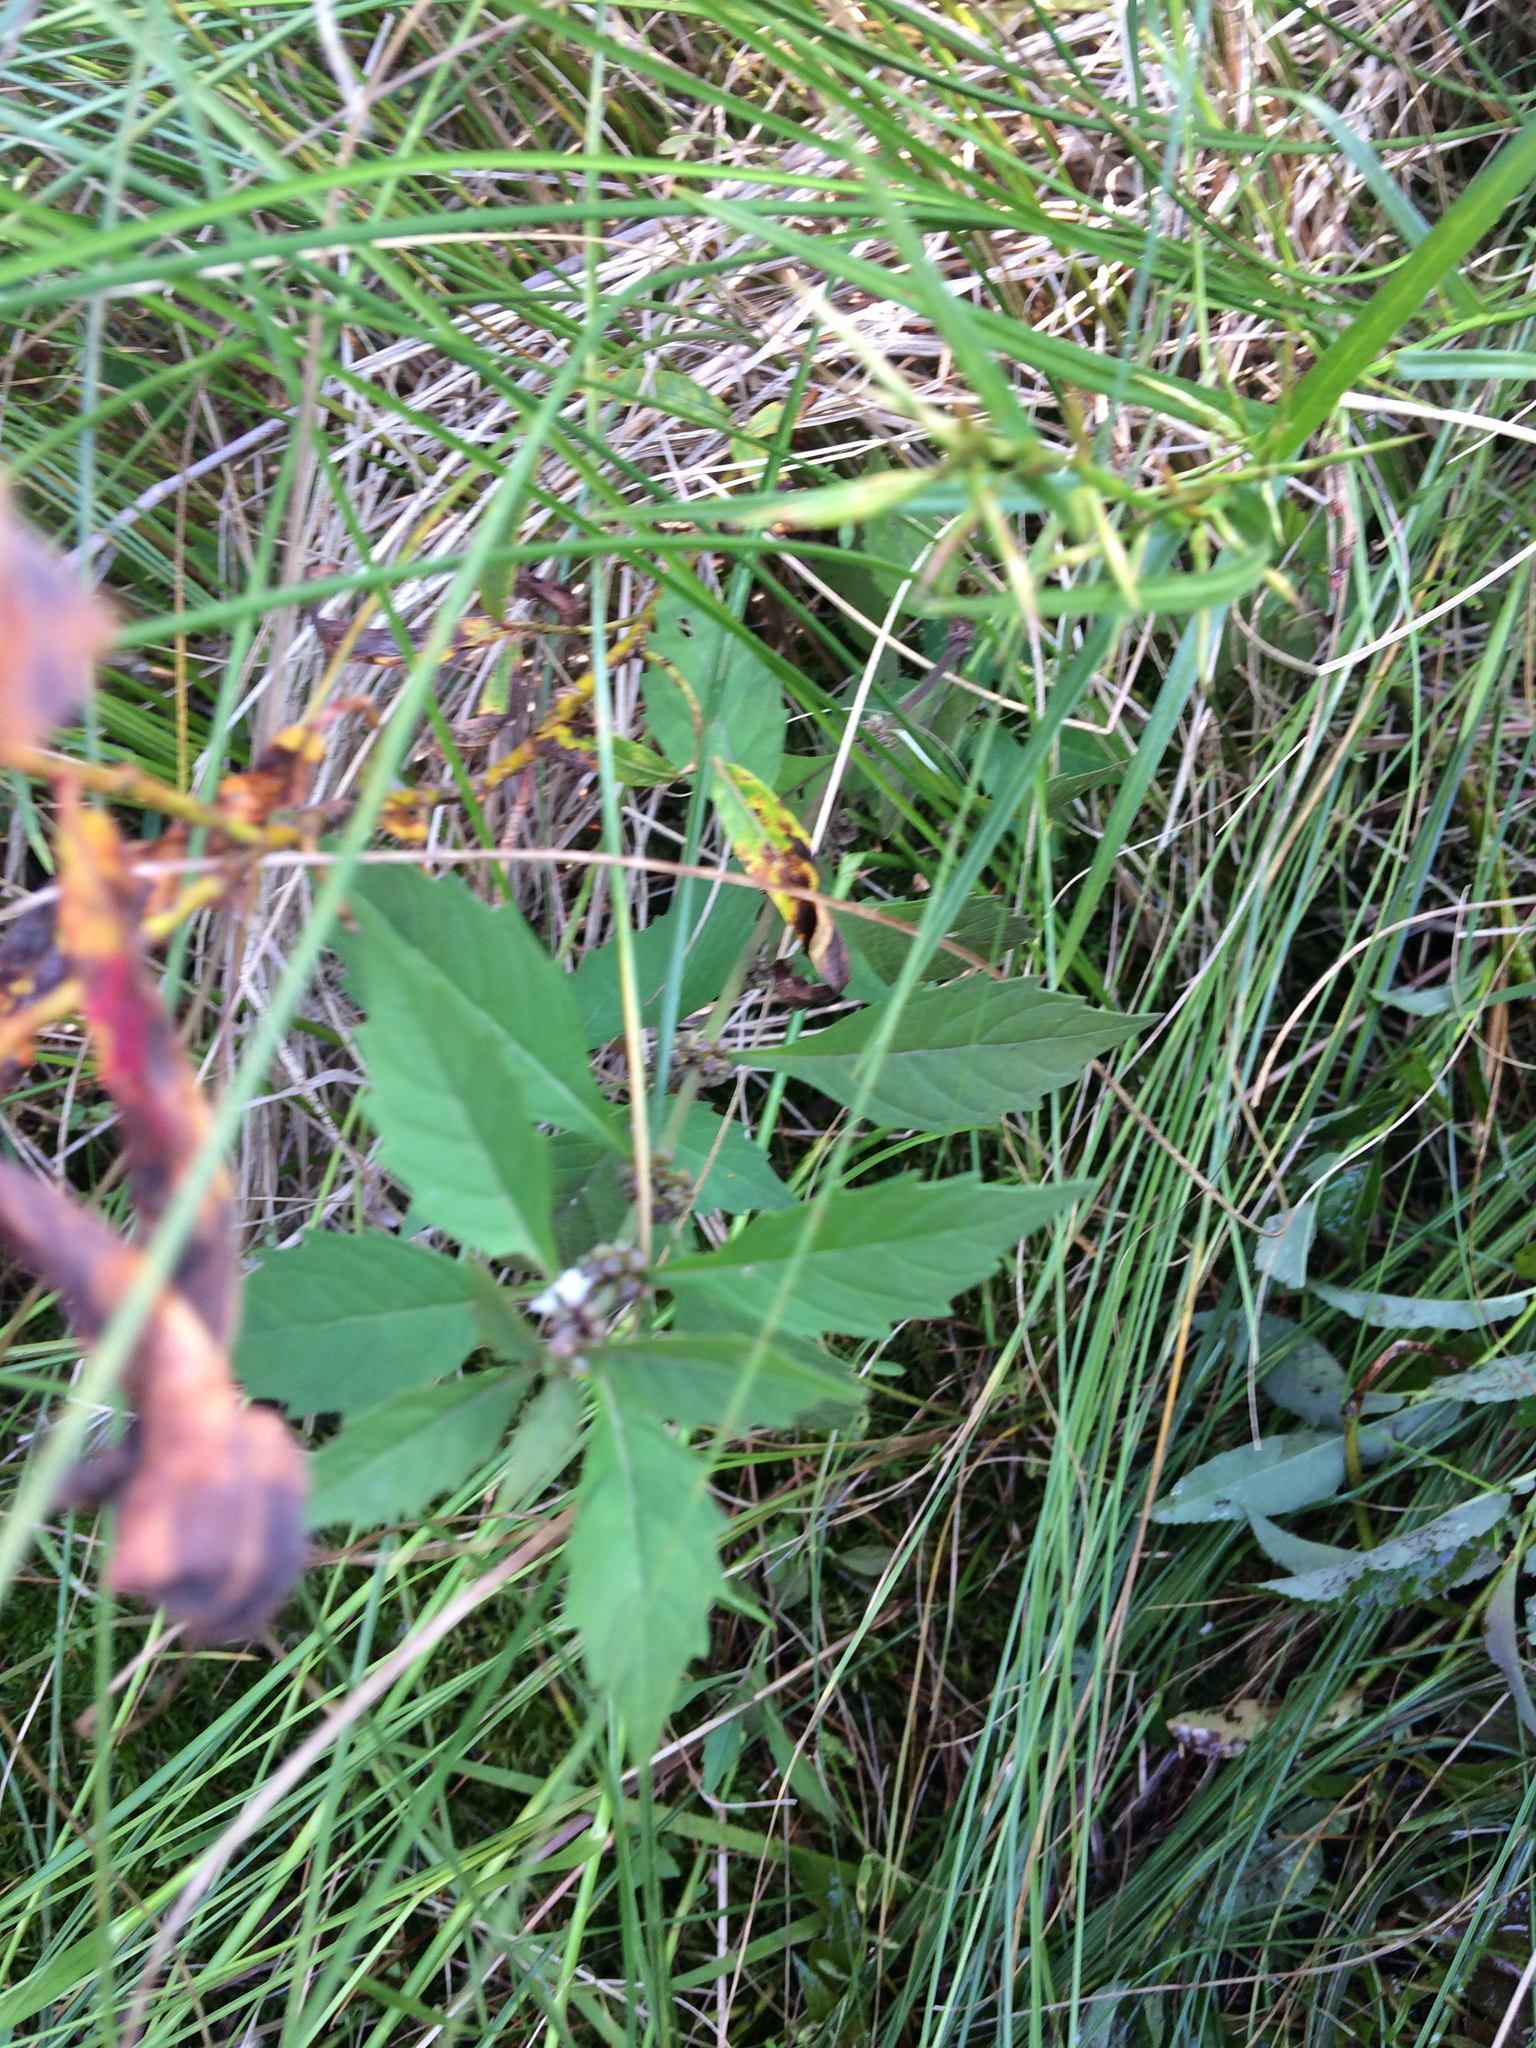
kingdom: Plantae
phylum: Tracheophyta
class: Magnoliopsida
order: Lamiales
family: Lamiaceae
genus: Lycopus
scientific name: Lycopus uniflorus
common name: Northern bugleweed
